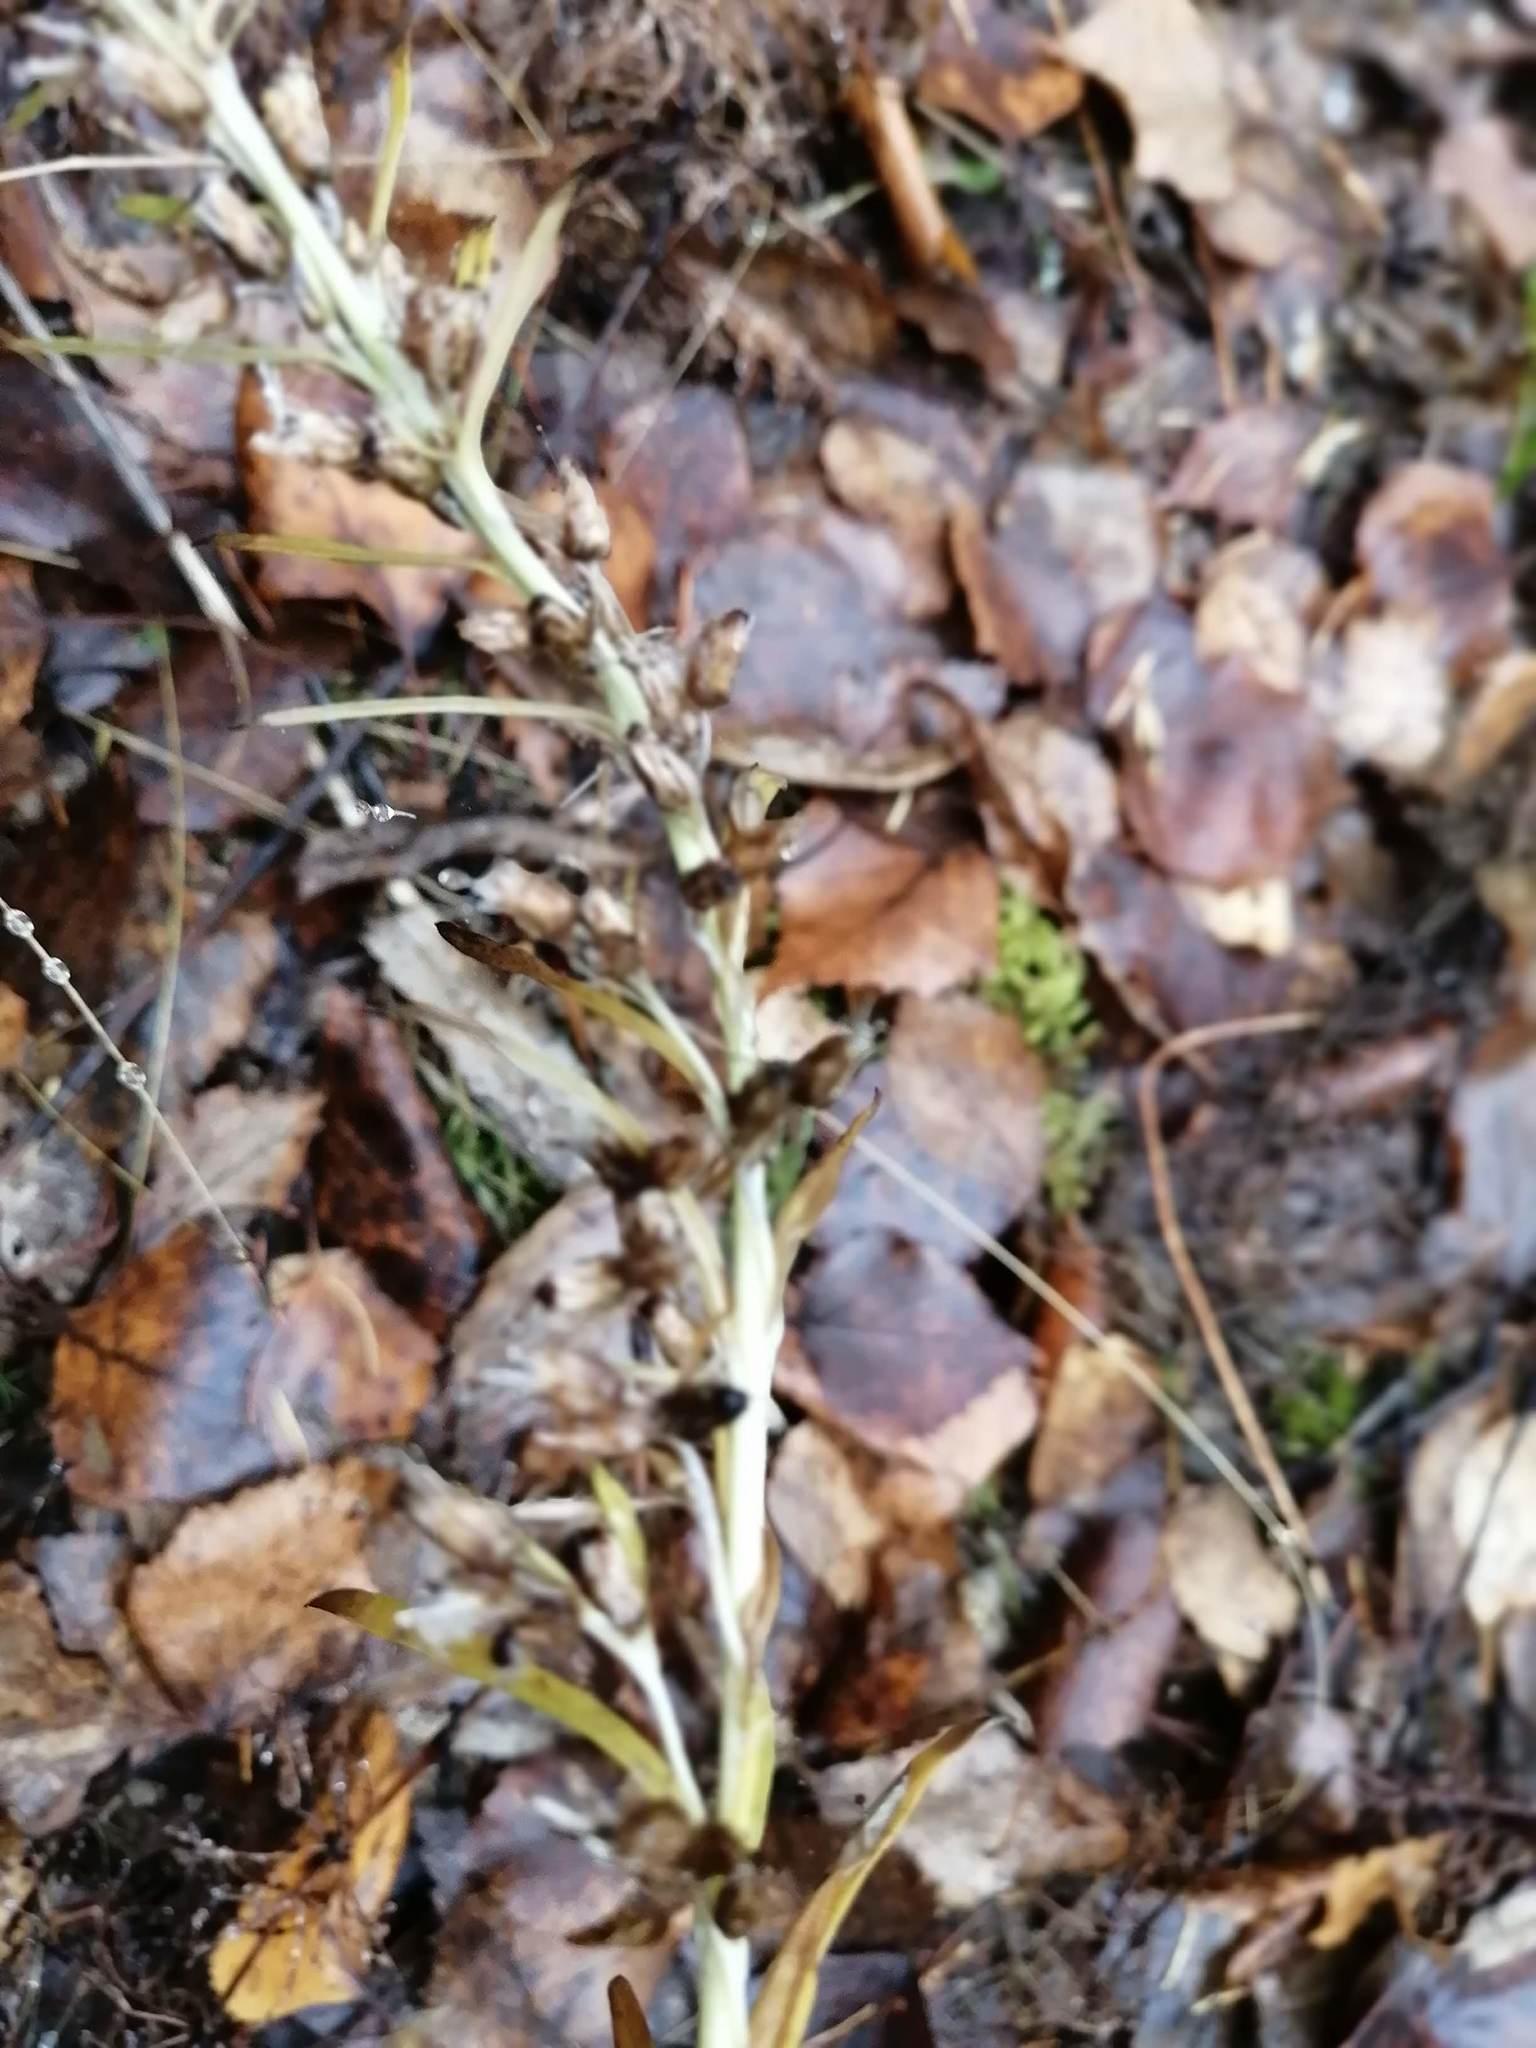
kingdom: Plantae
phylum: Tracheophyta
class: Magnoliopsida
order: Asterales
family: Asteraceae
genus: Omalotheca
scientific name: Omalotheca sylvatica
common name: Heath cudweed
